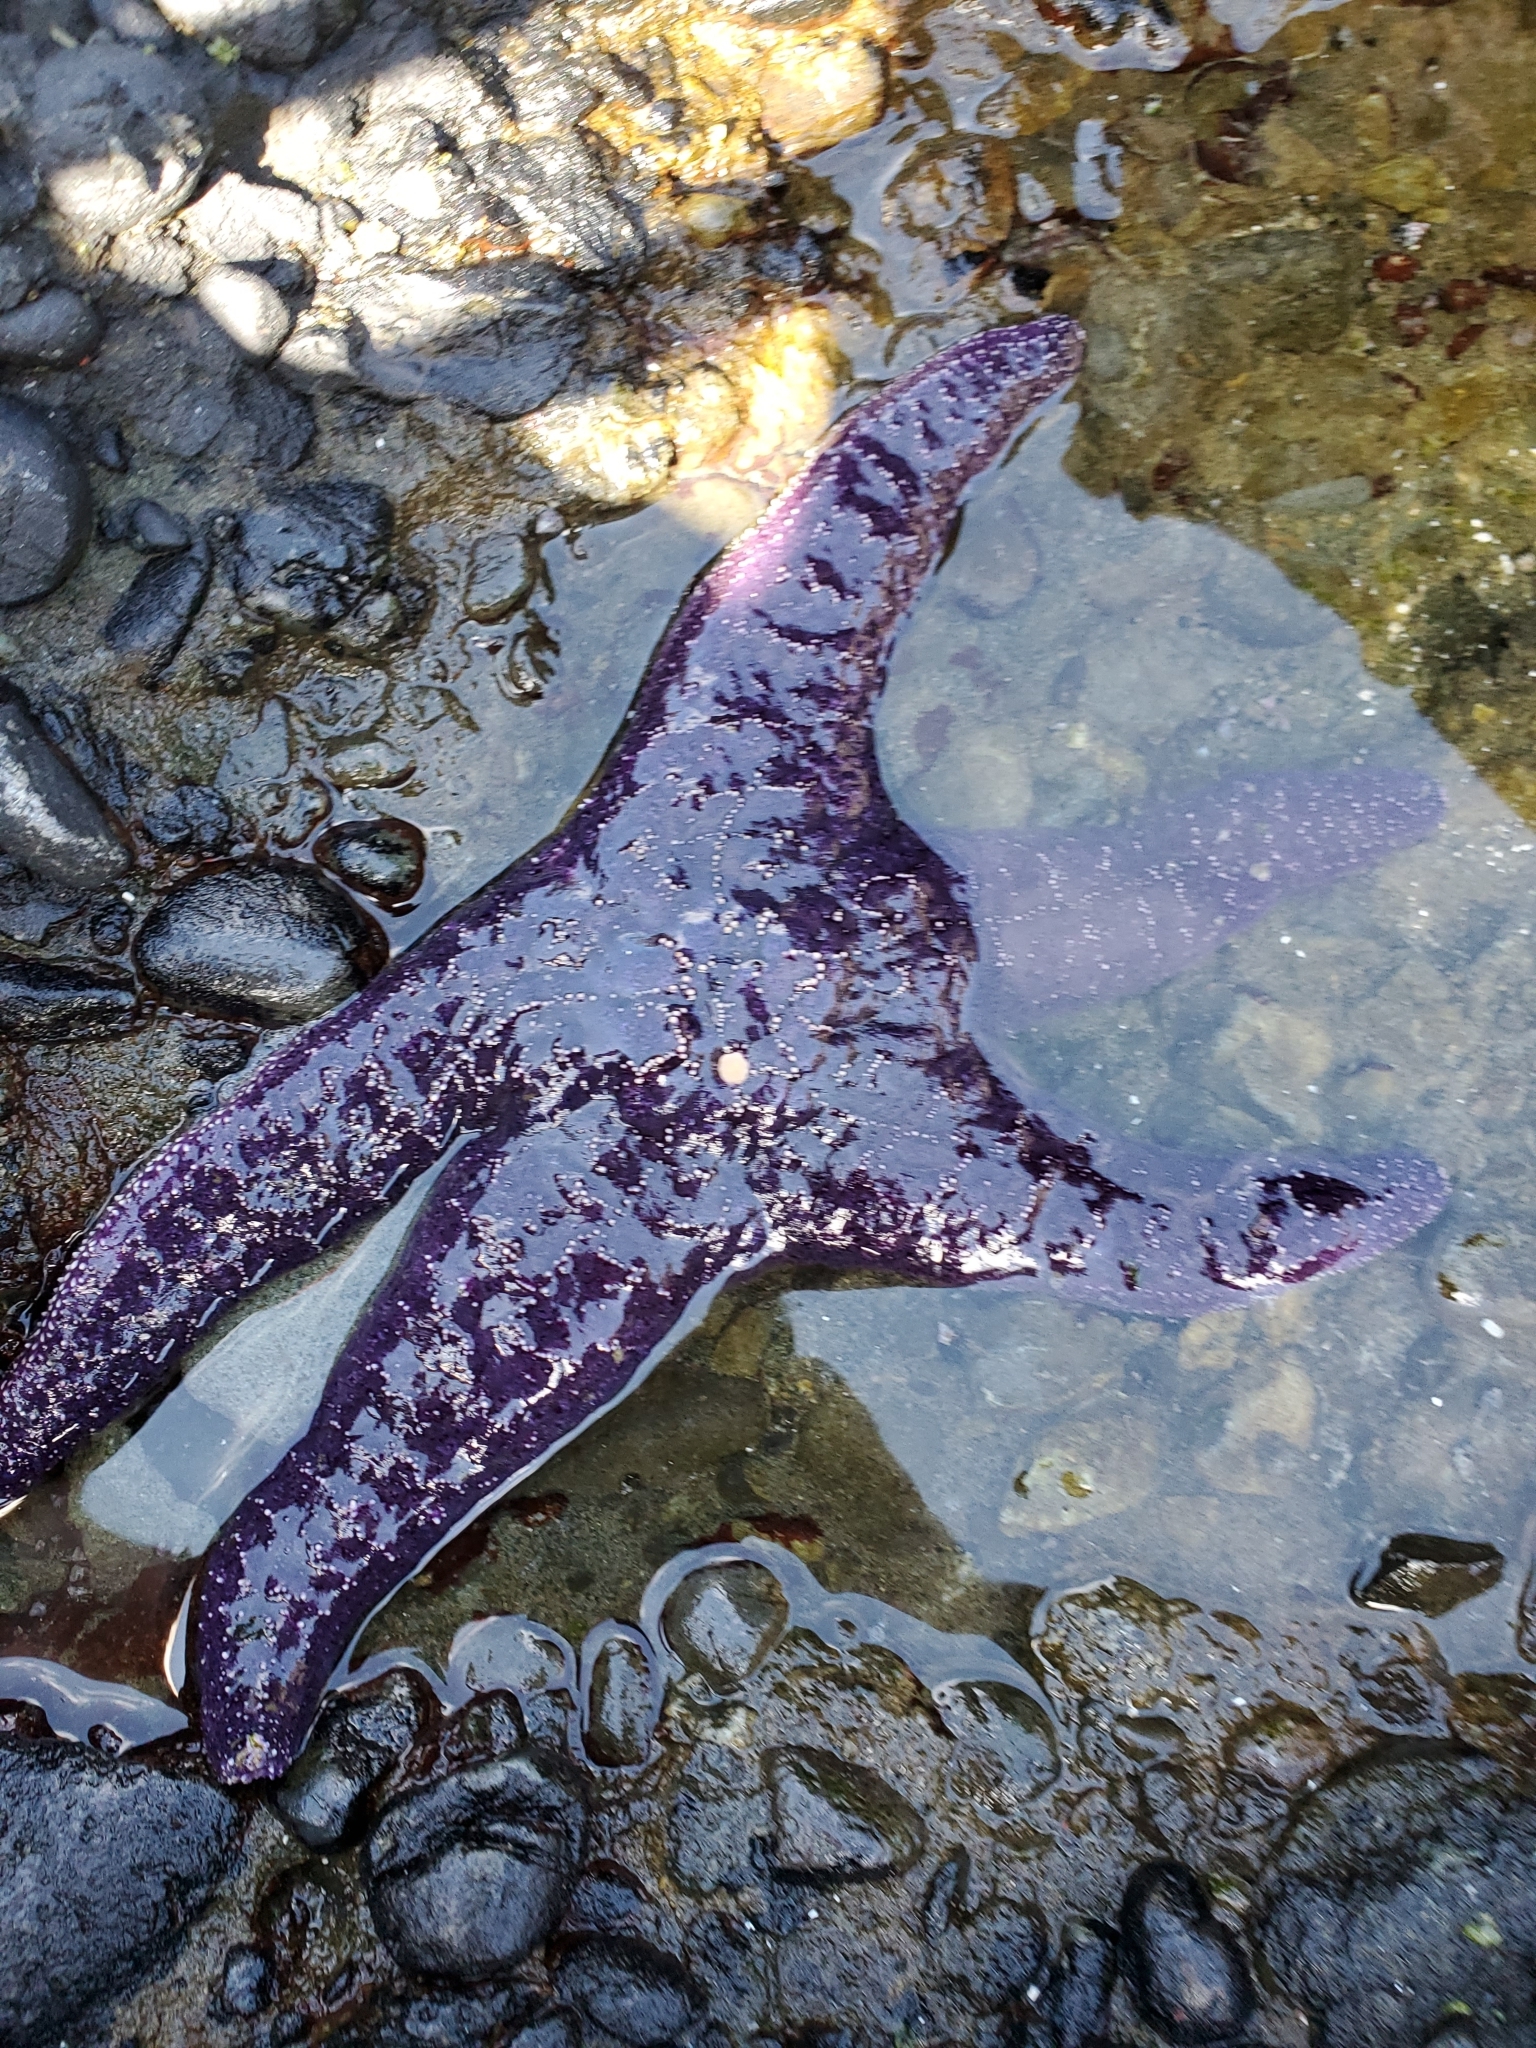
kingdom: Animalia
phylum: Echinodermata
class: Asteroidea
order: Forcipulatida
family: Asteriidae
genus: Pisaster
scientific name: Pisaster ochraceus
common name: Ochre stars
